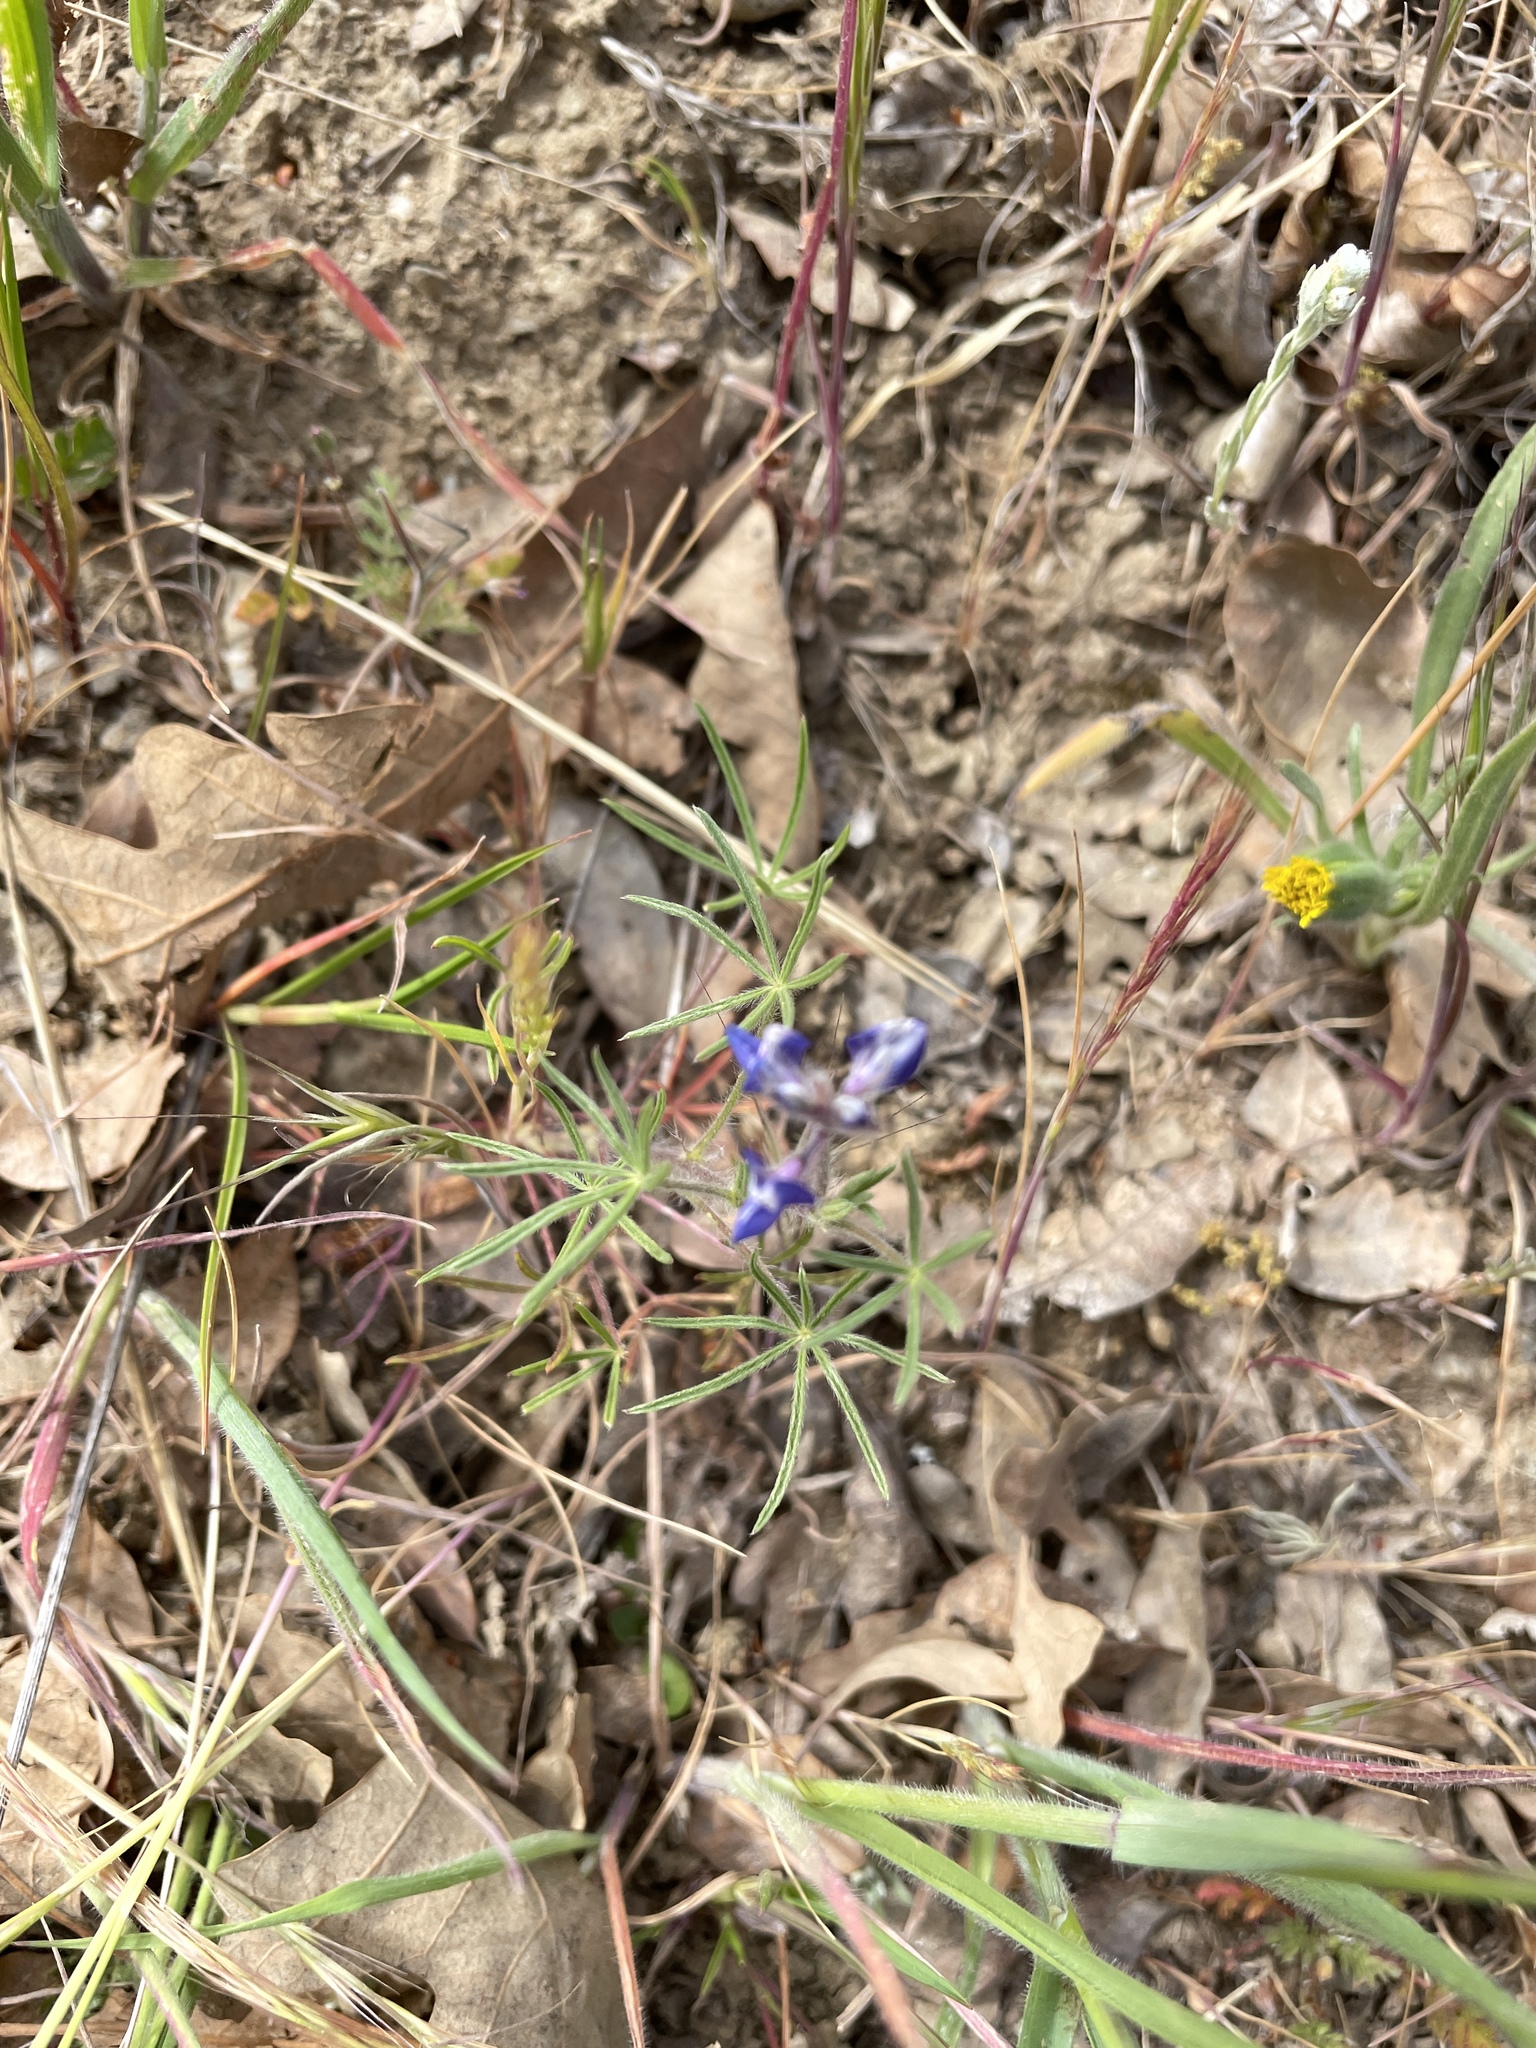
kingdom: Plantae
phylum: Tracheophyta
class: Magnoliopsida
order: Fabales
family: Fabaceae
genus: Lupinus
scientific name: Lupinus bicolor
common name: Miniature lupine
